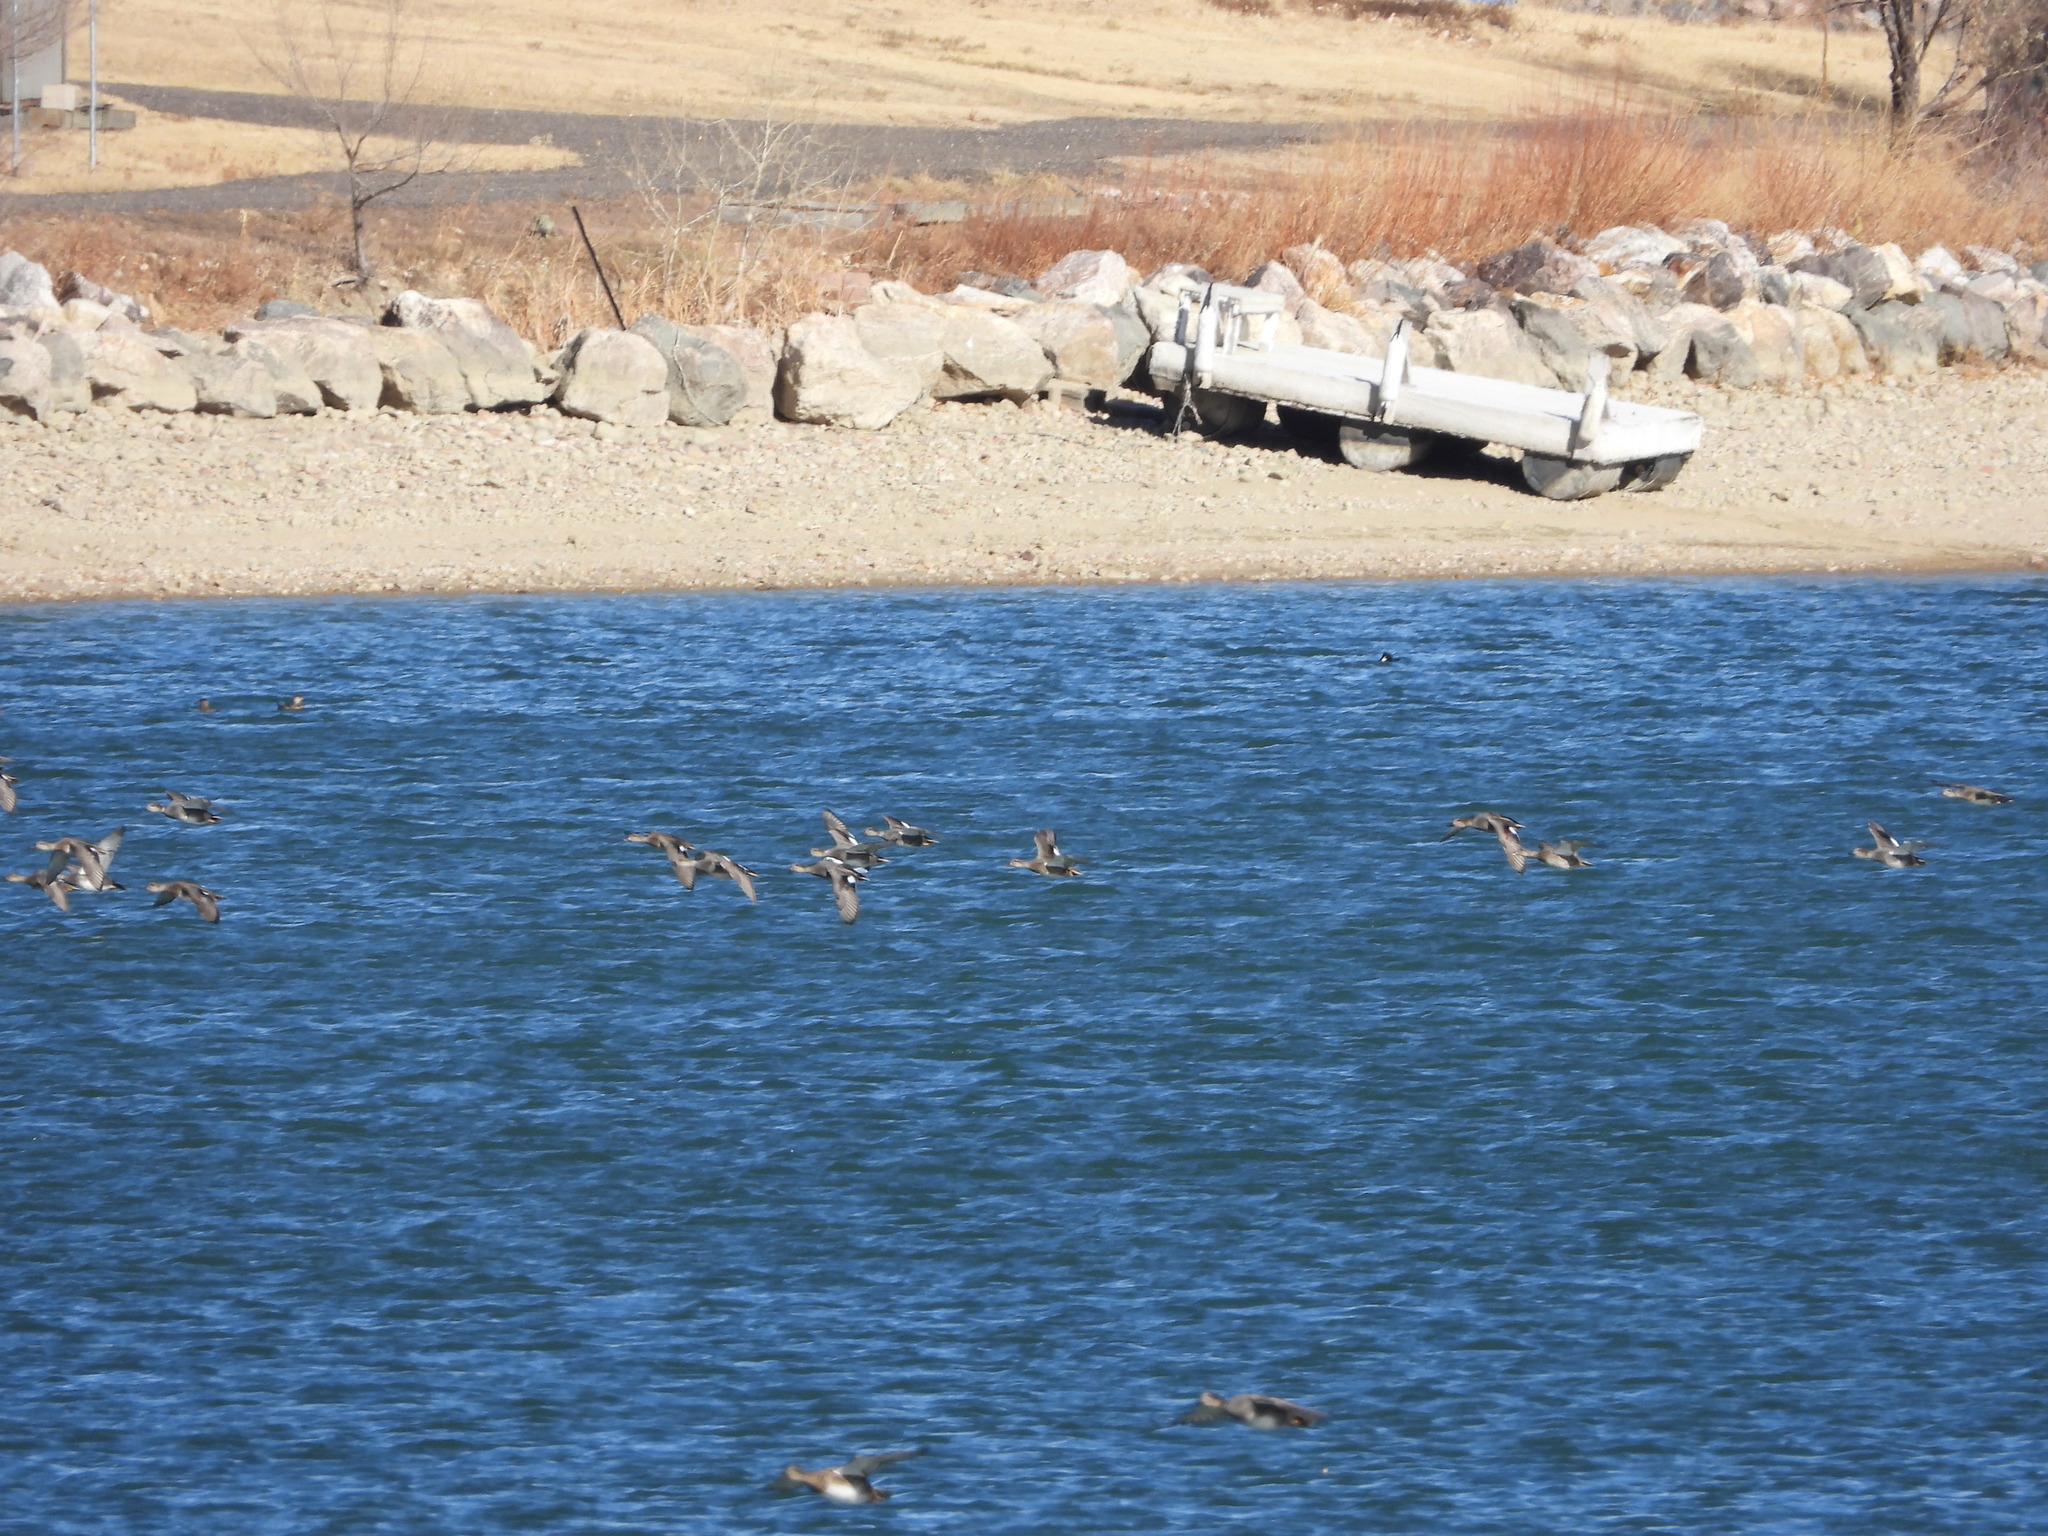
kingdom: Animalia
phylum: Chordata
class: Aves
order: Anseriformes
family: Anatidae
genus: Mareca
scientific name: Mareca strepera
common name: Gadwall
